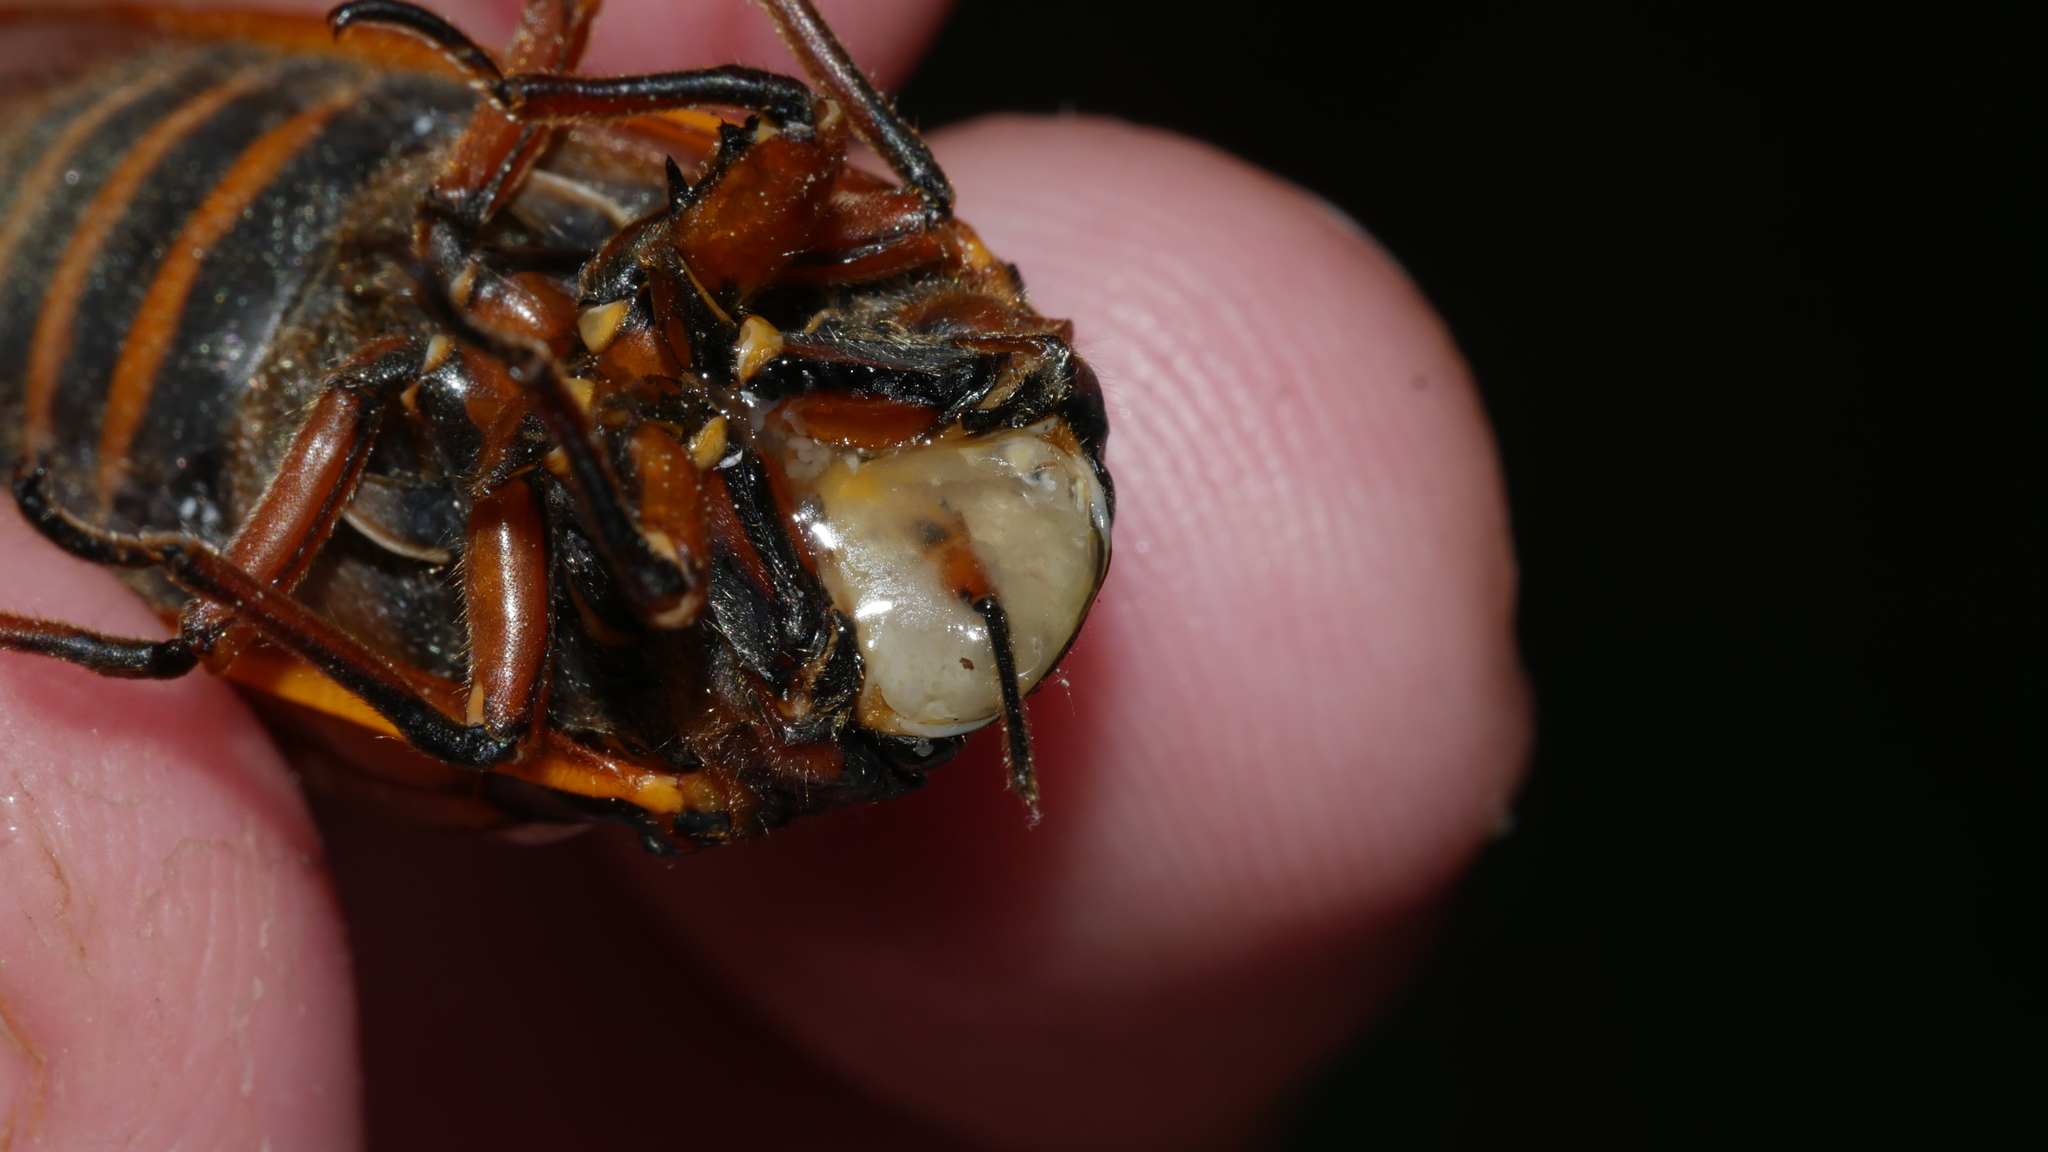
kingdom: Animalia
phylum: Arthropoda
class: Insecta
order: Hemiptera
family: Cicadidae
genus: Magicicada
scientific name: Magicicada septendecim
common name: Periodical cicada
